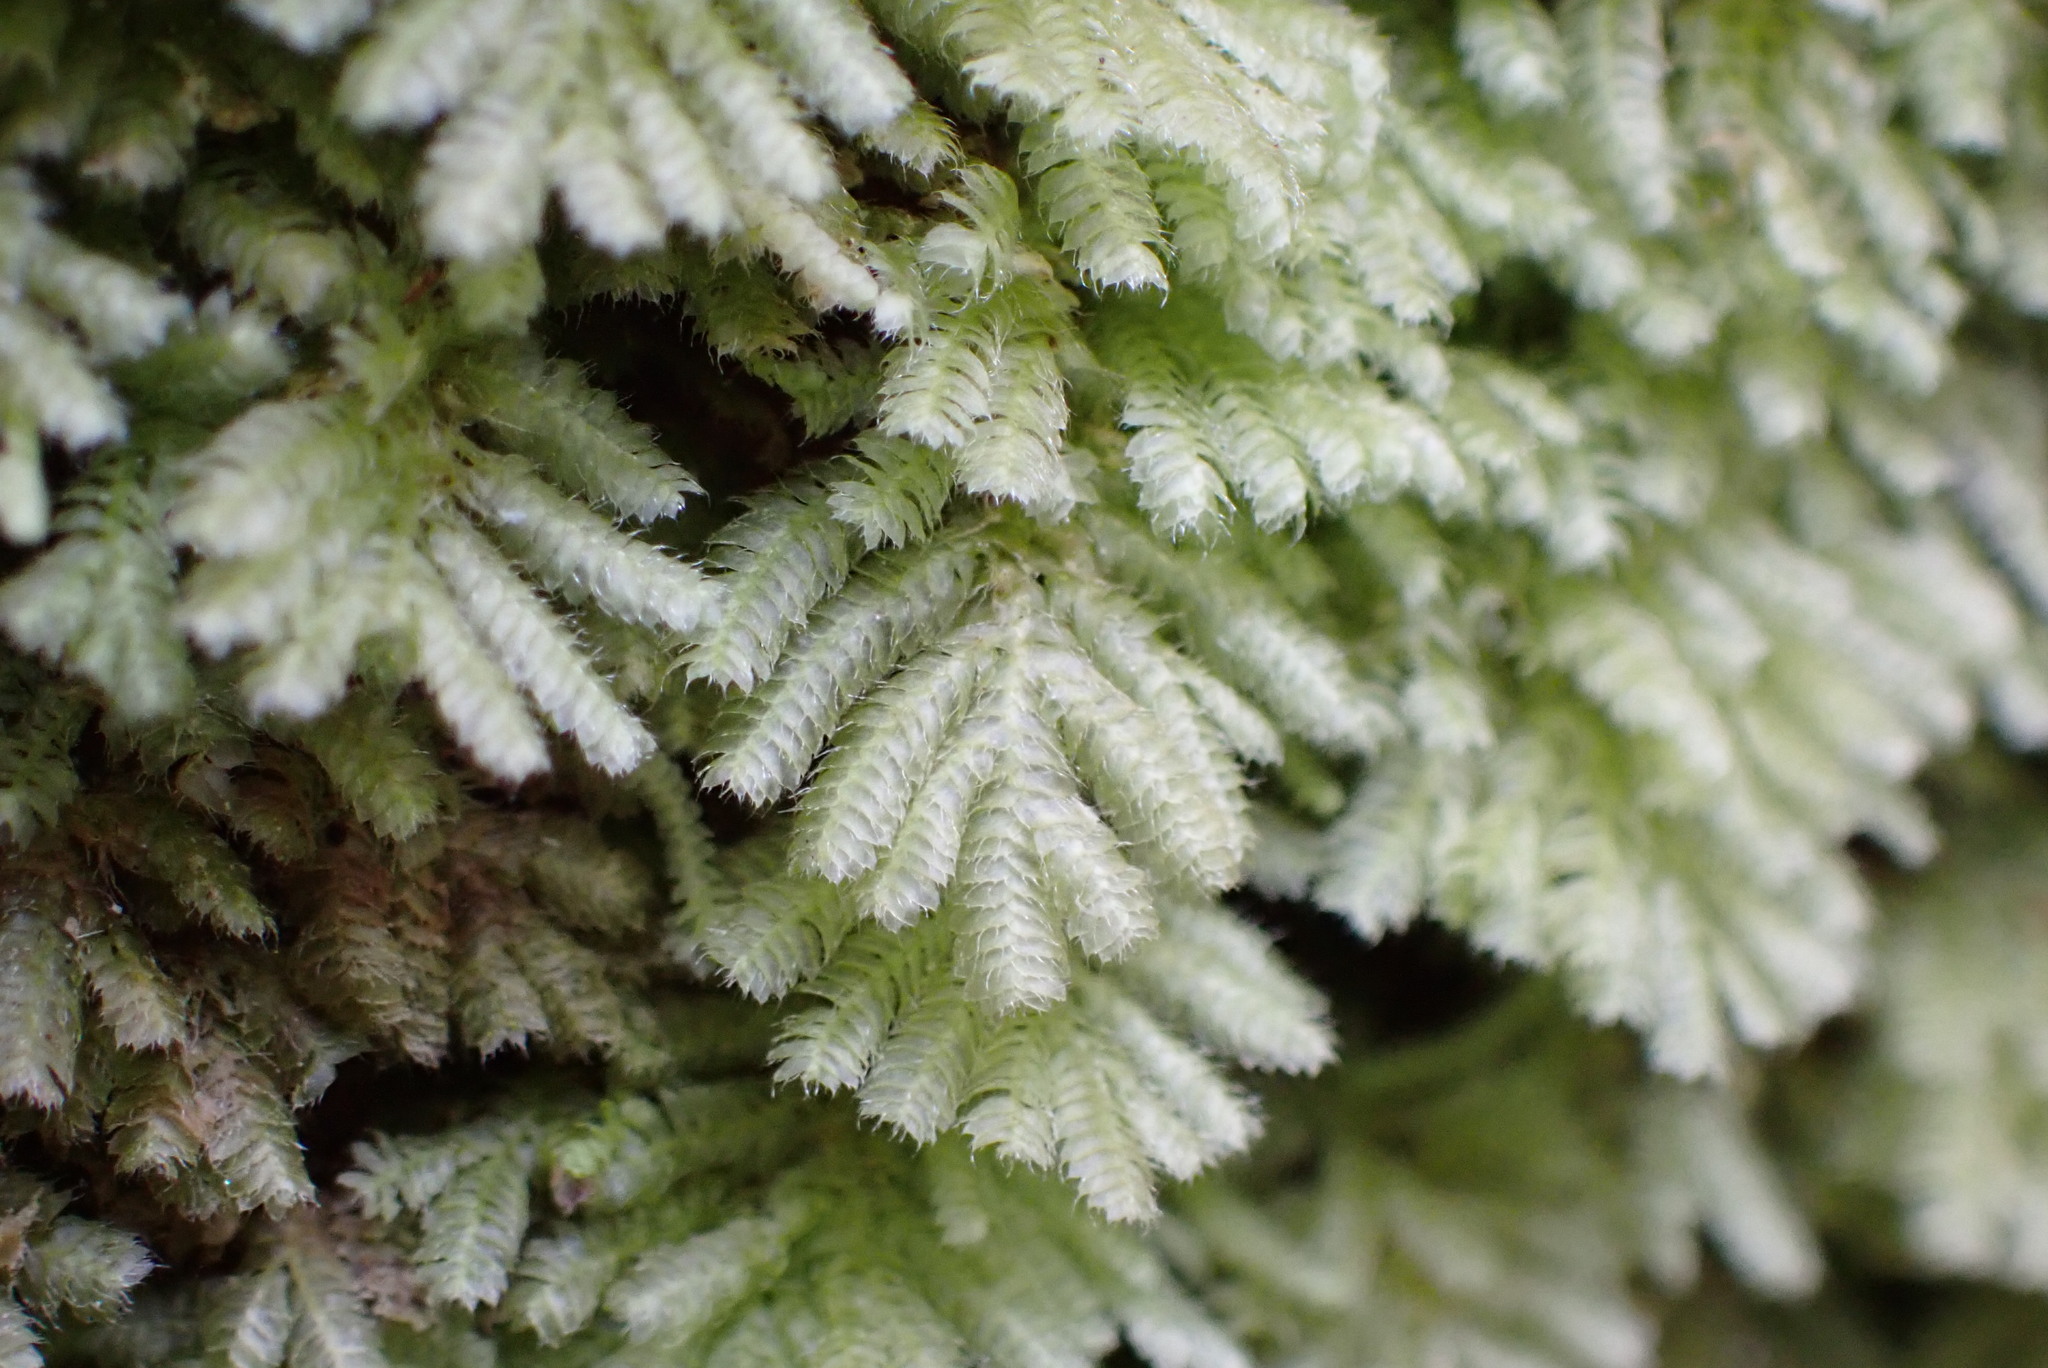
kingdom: Plantae
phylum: Bryophyta
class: Bryopsida
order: Hypopterygiales
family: Hypopterygiaceae
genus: Catharomnion
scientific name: Catharomnion ciliatum
